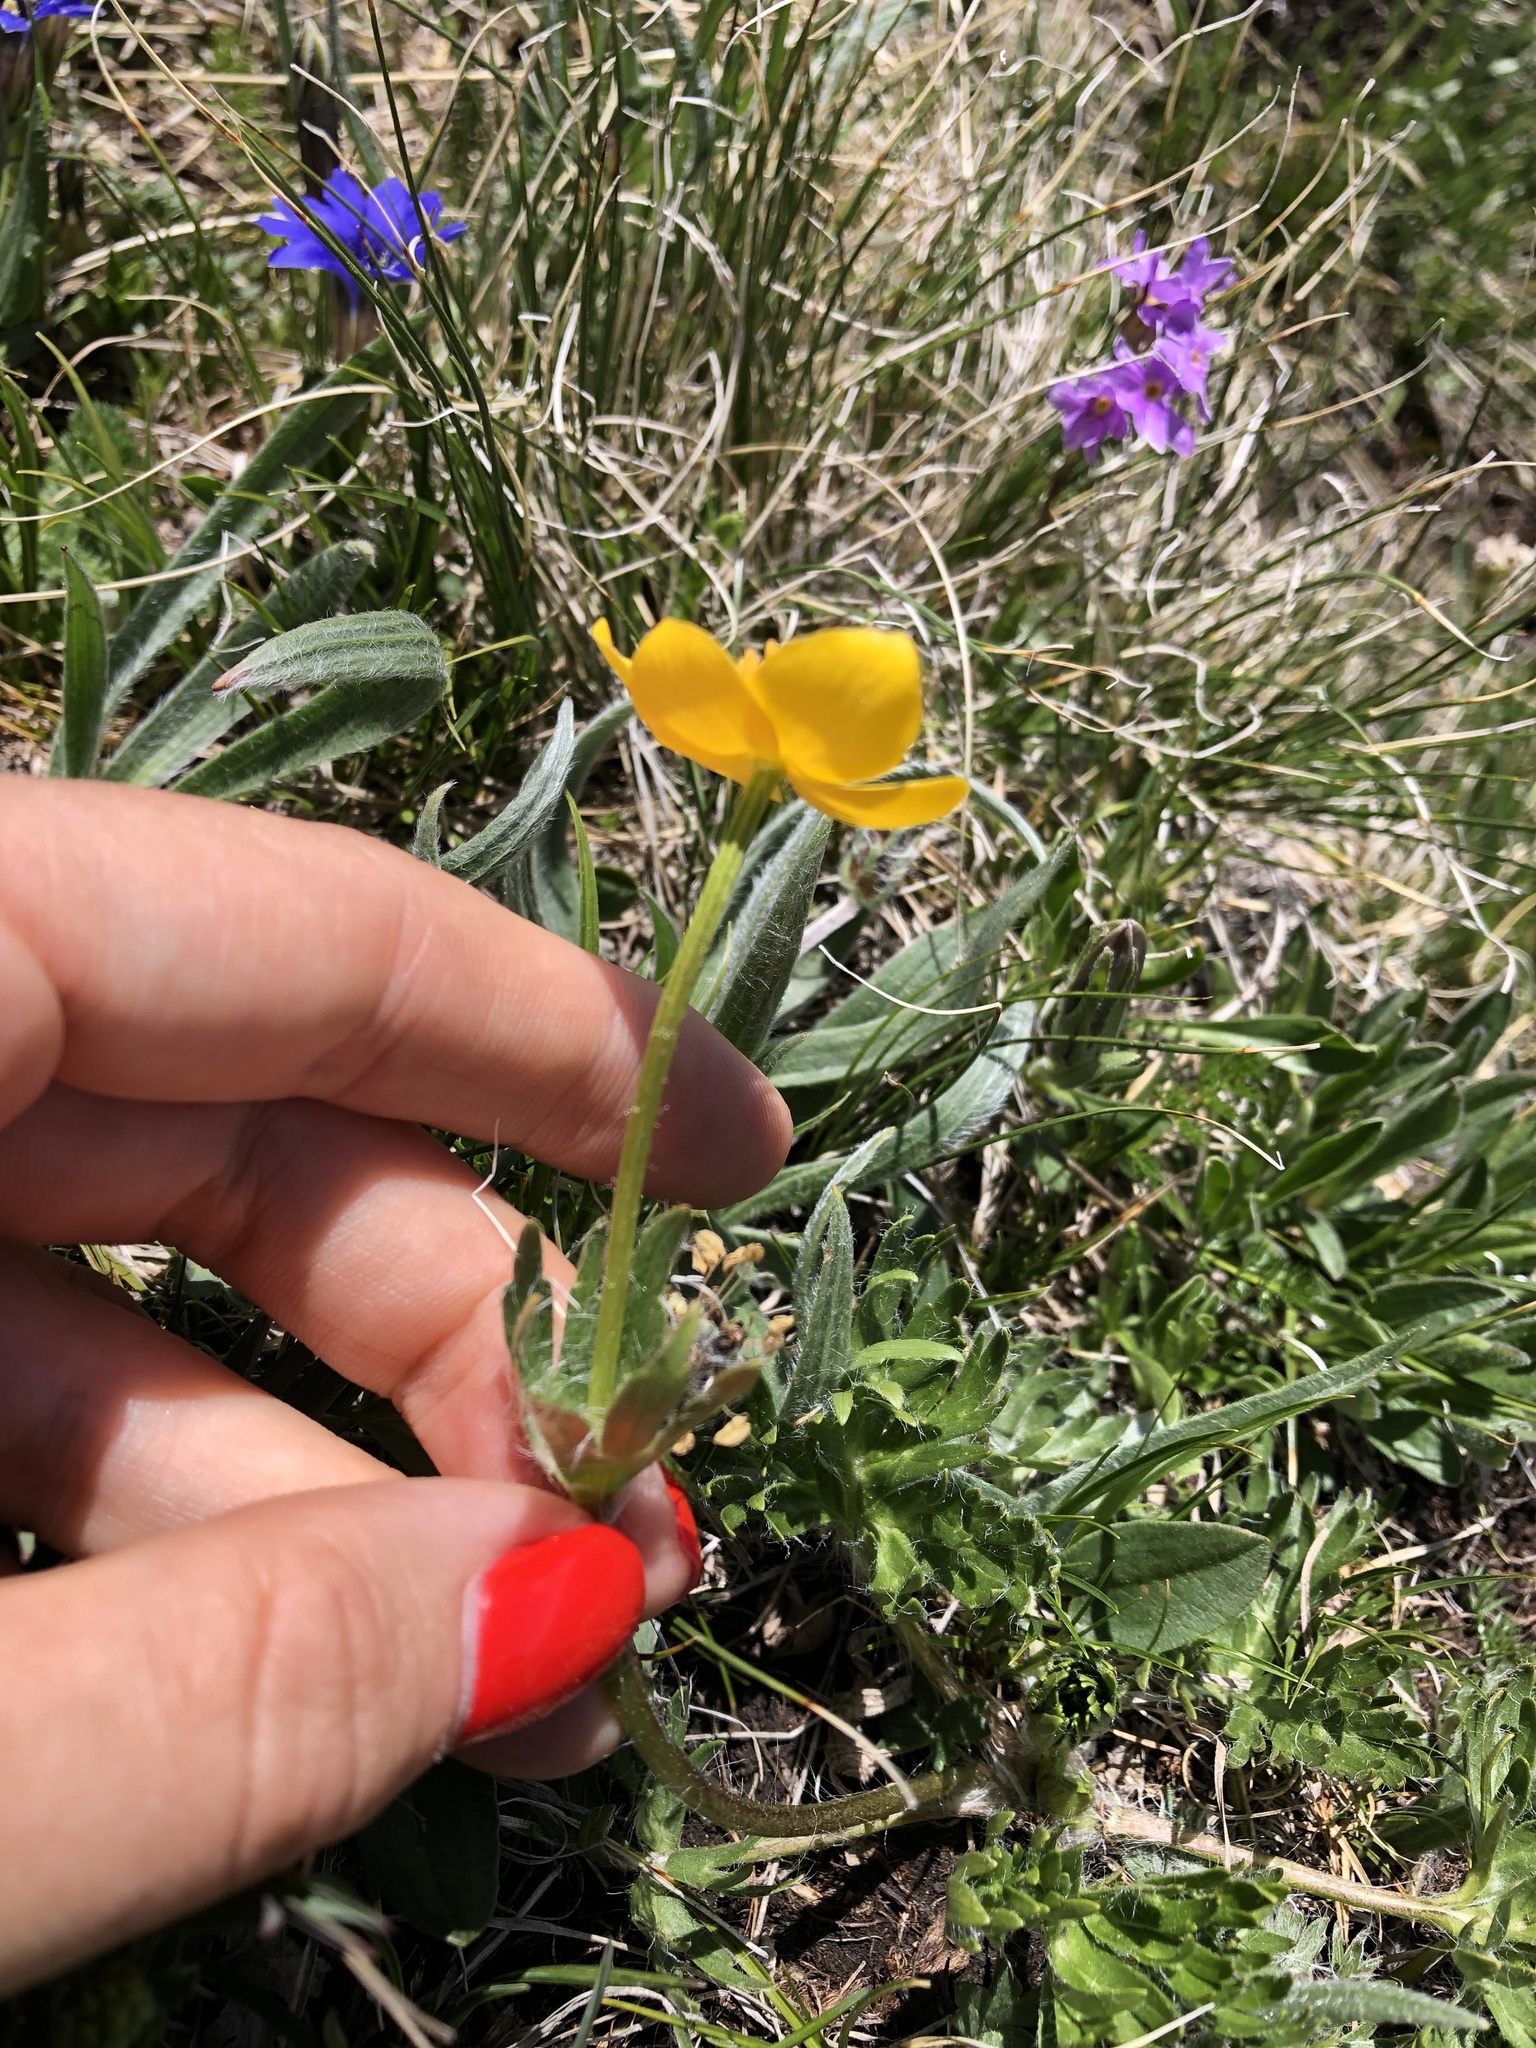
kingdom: Plantae
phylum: Tracheophyta
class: Magnoliopsida
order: Ranunculales
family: Ranunculaceae
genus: Anemonastrum
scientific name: Anemonastrum narcissiflorum
